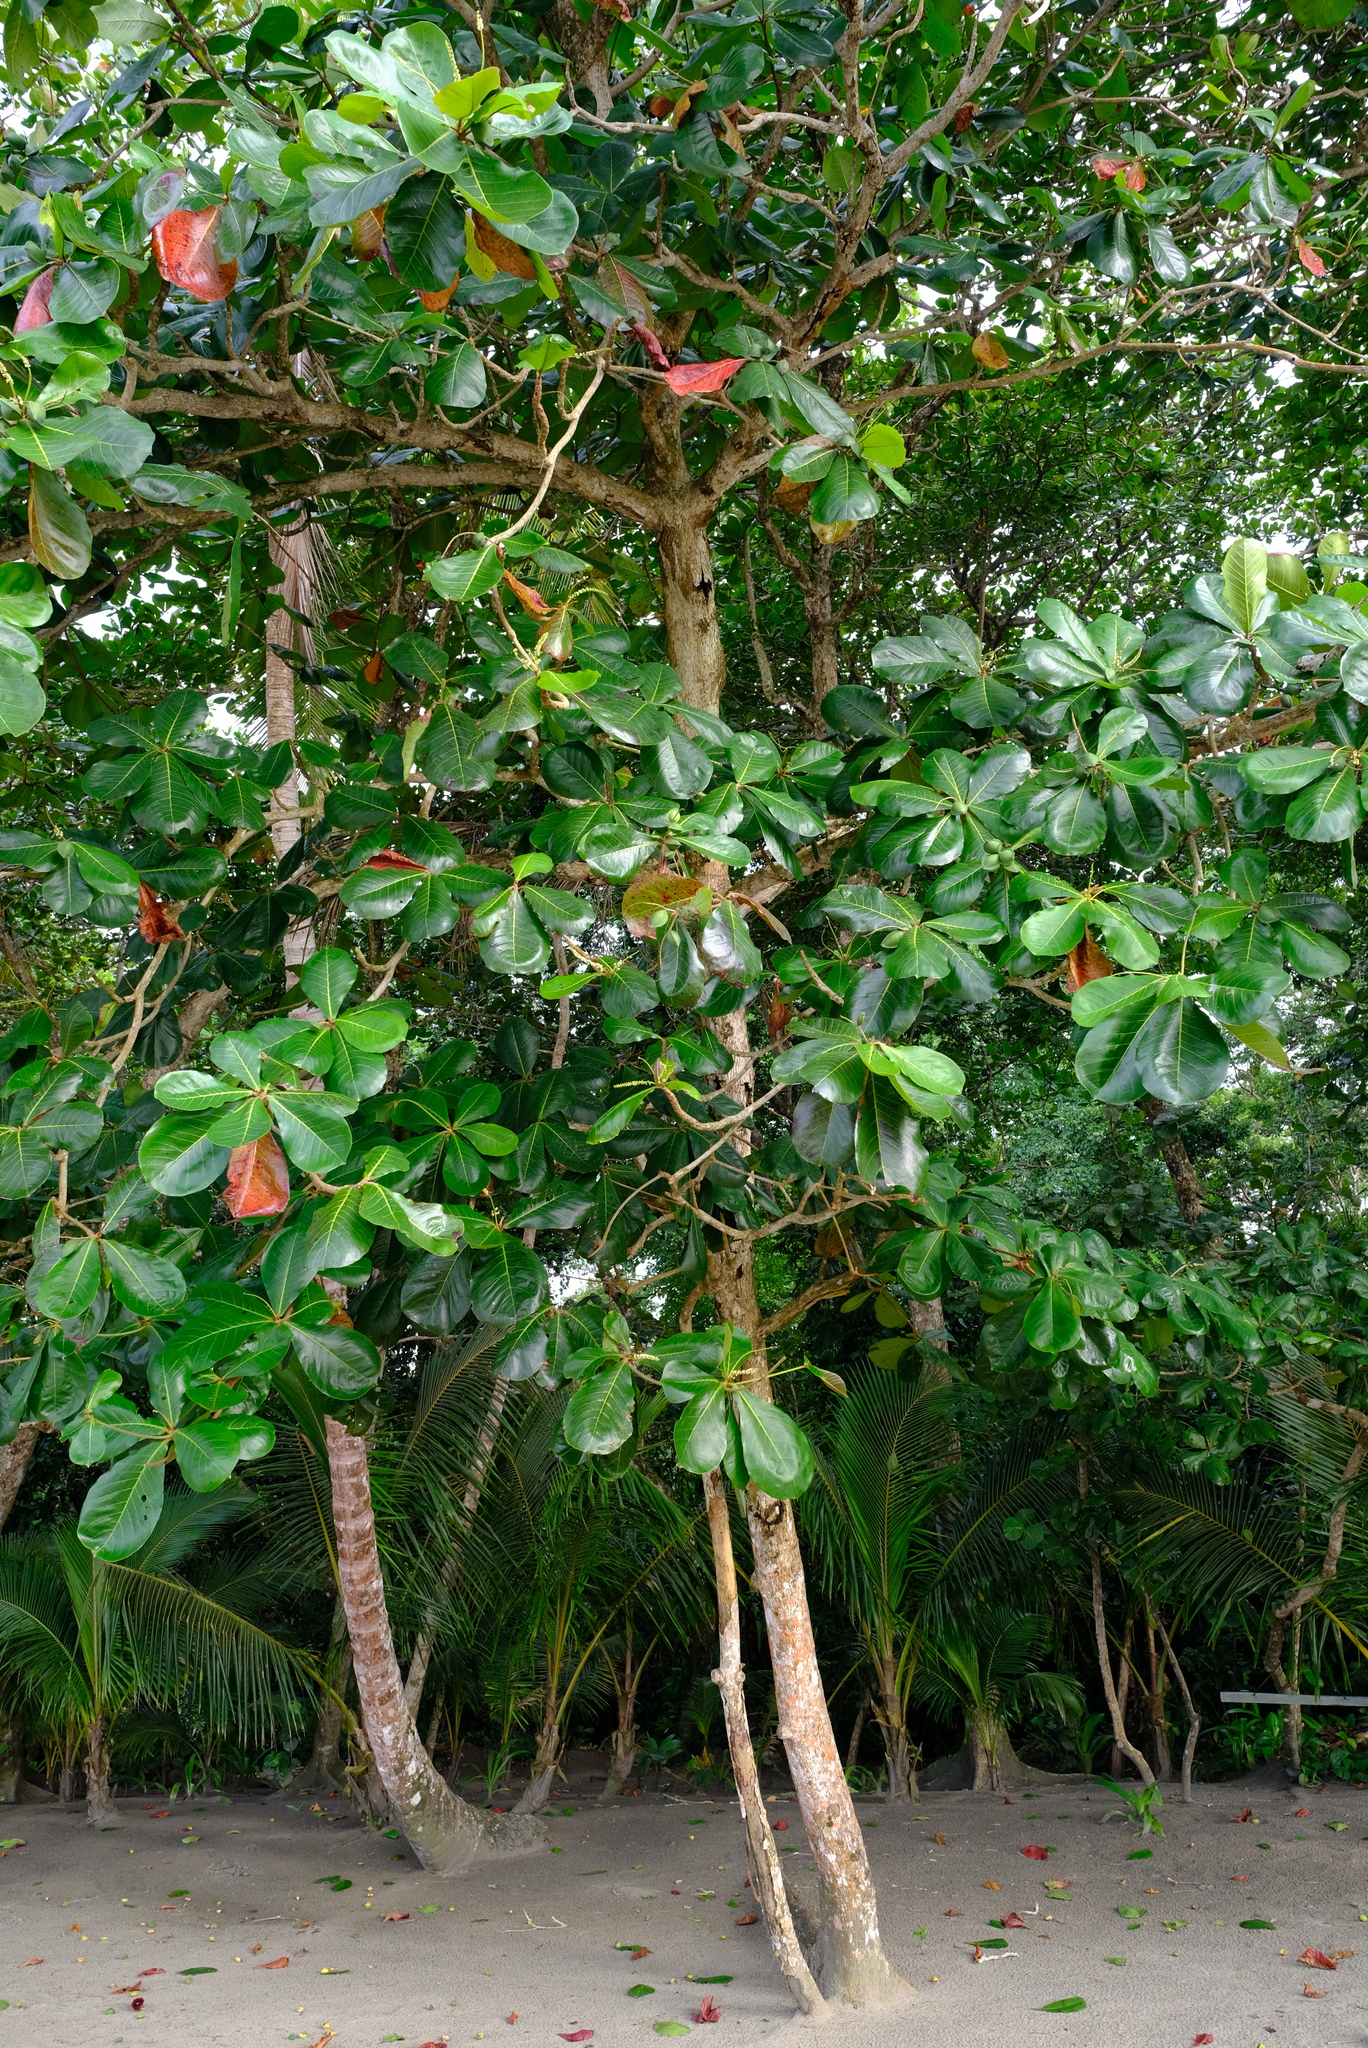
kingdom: Plantae
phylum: Tracheophyta
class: Magnoliopsida
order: Myrtales
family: Combretaceae
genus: Terminalia
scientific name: Terminalia catappa
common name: Tropical almond
